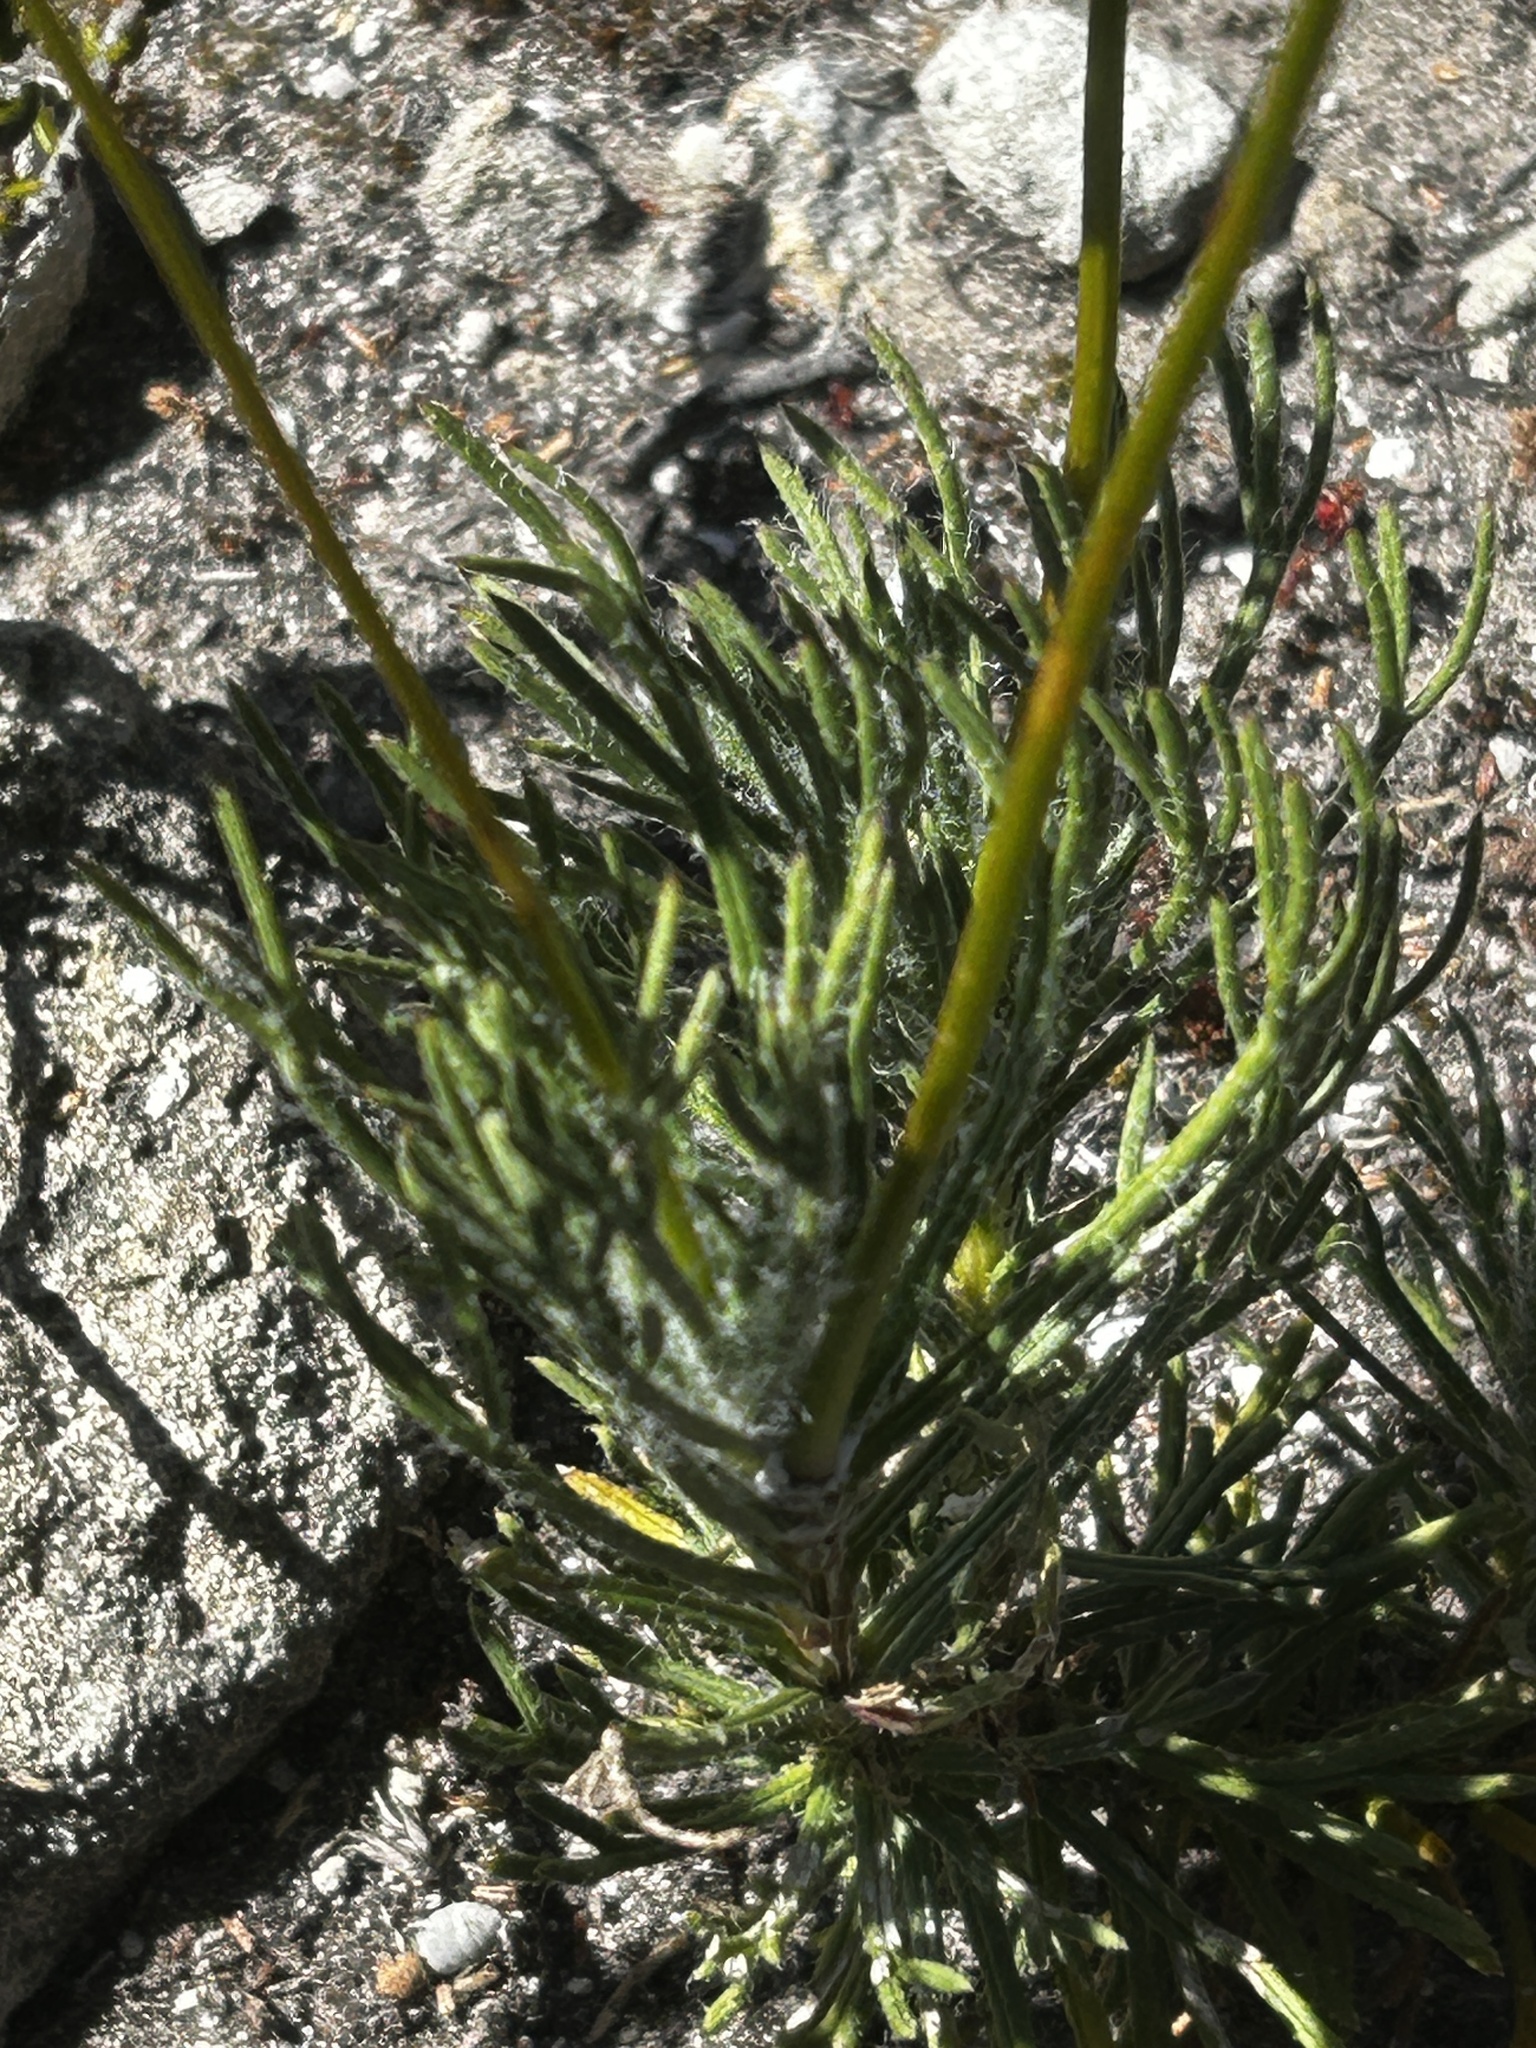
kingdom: Plantae
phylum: Tracheophyta
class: Magnoliopsida
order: Asterales
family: Asteraceae
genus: Euryops
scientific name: Euryops hebecarpus
